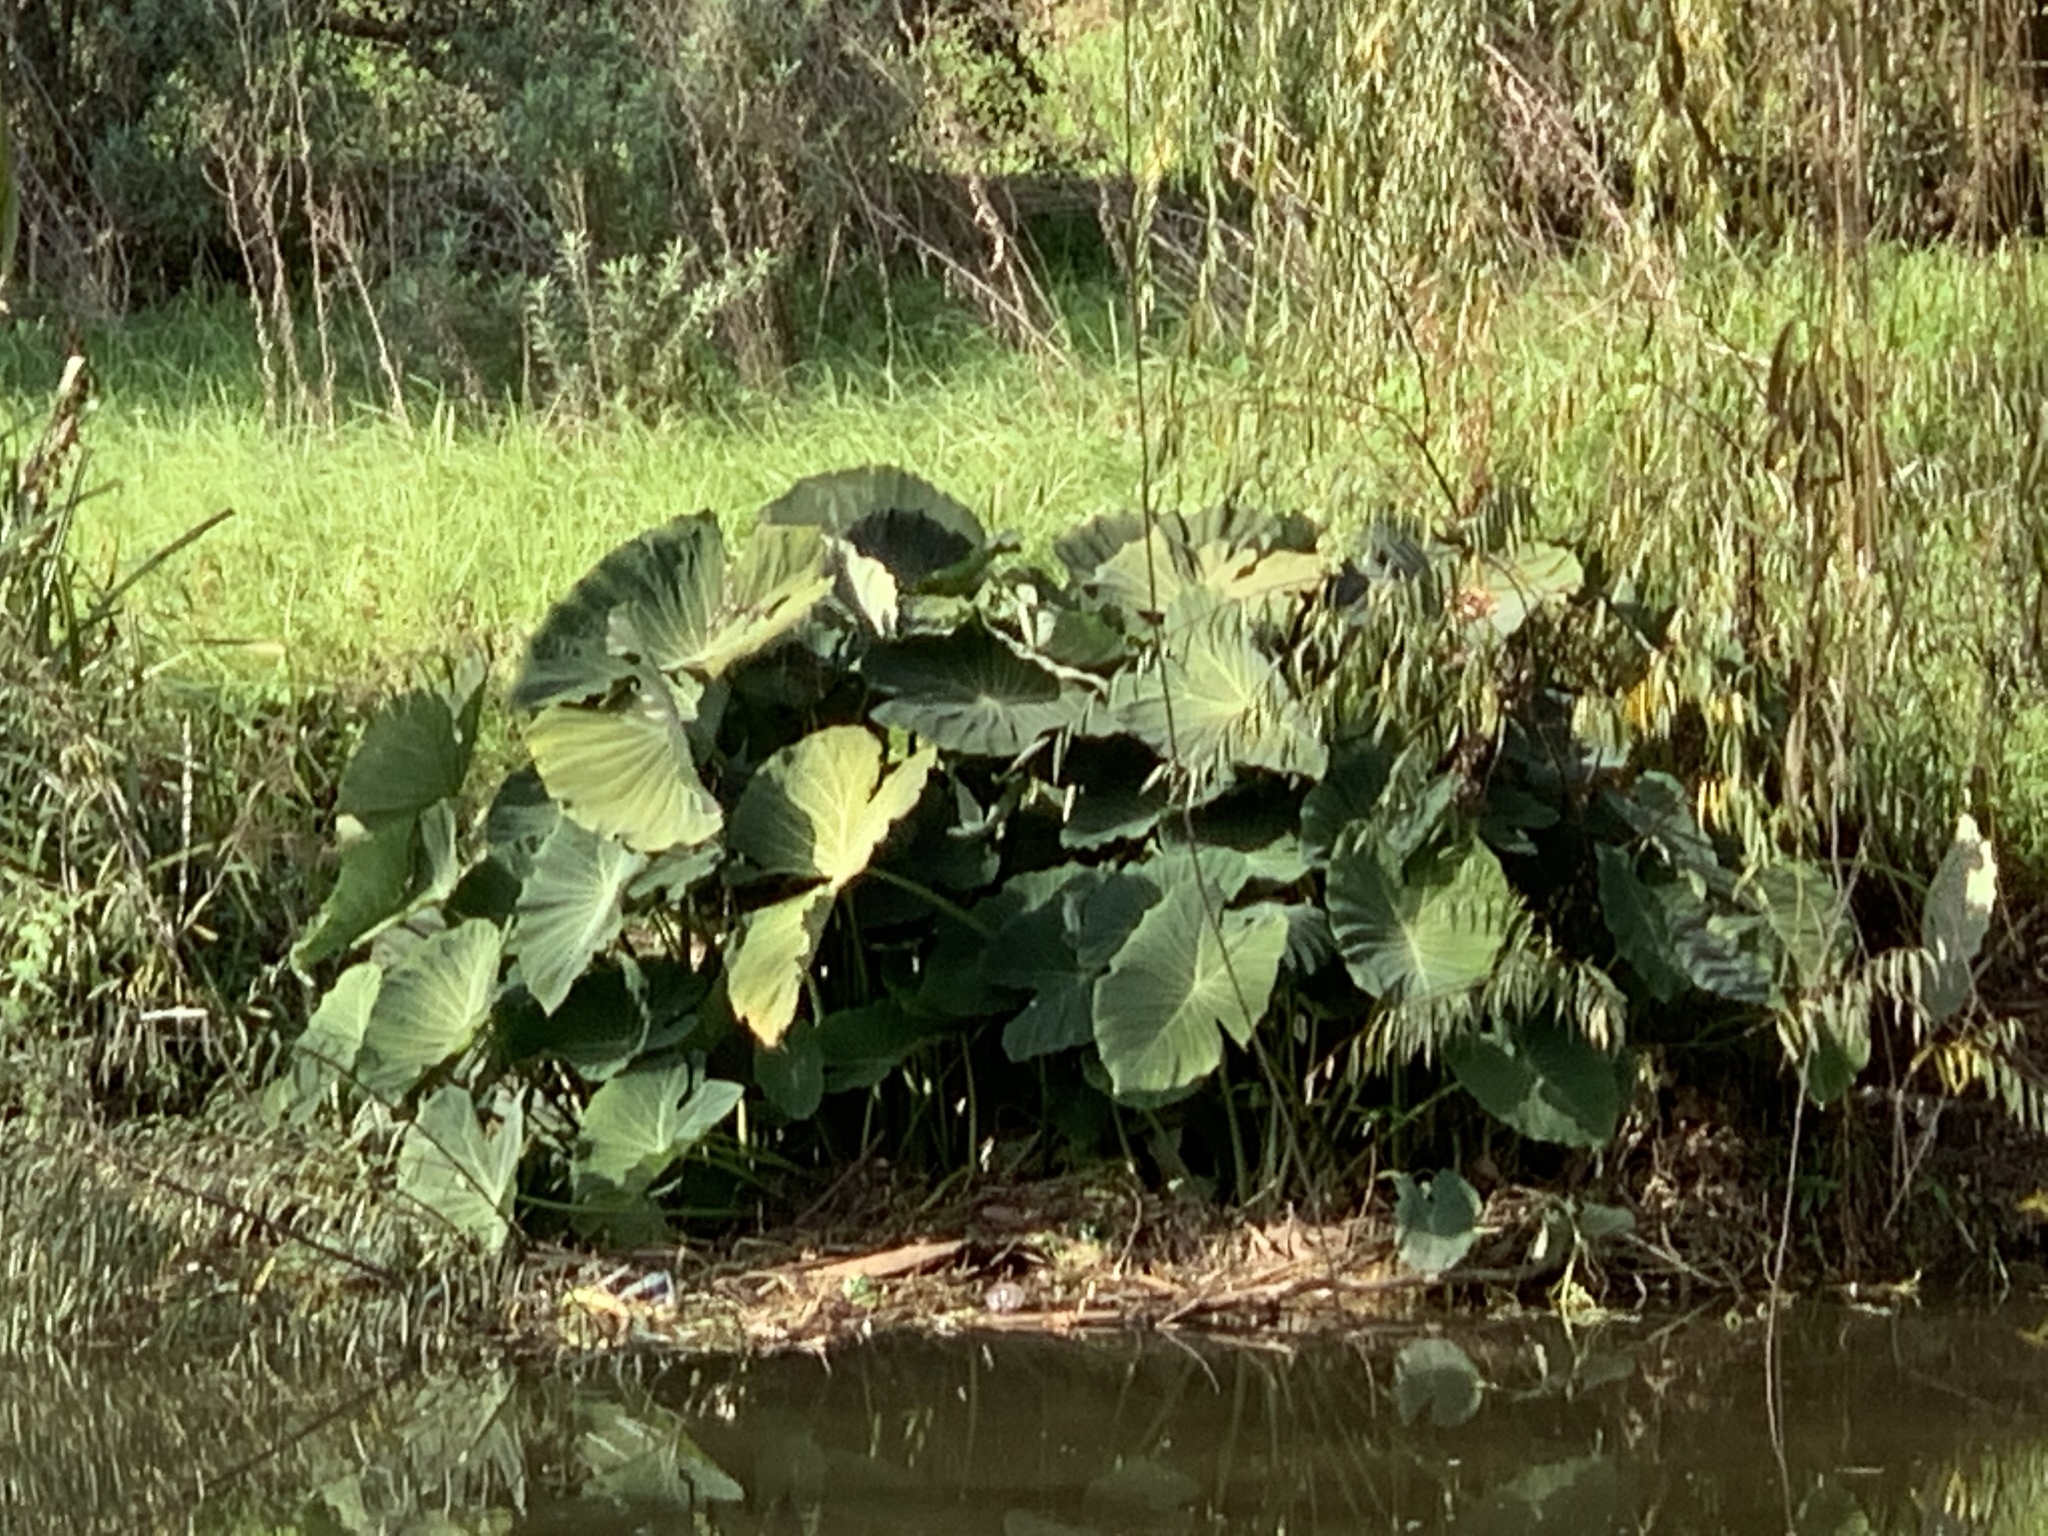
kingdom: Plantae
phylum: Tracheophyta
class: Liliopsida
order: Alismatales
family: Araceae
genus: Colocasia
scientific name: Colocasia esculenta
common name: Taro
